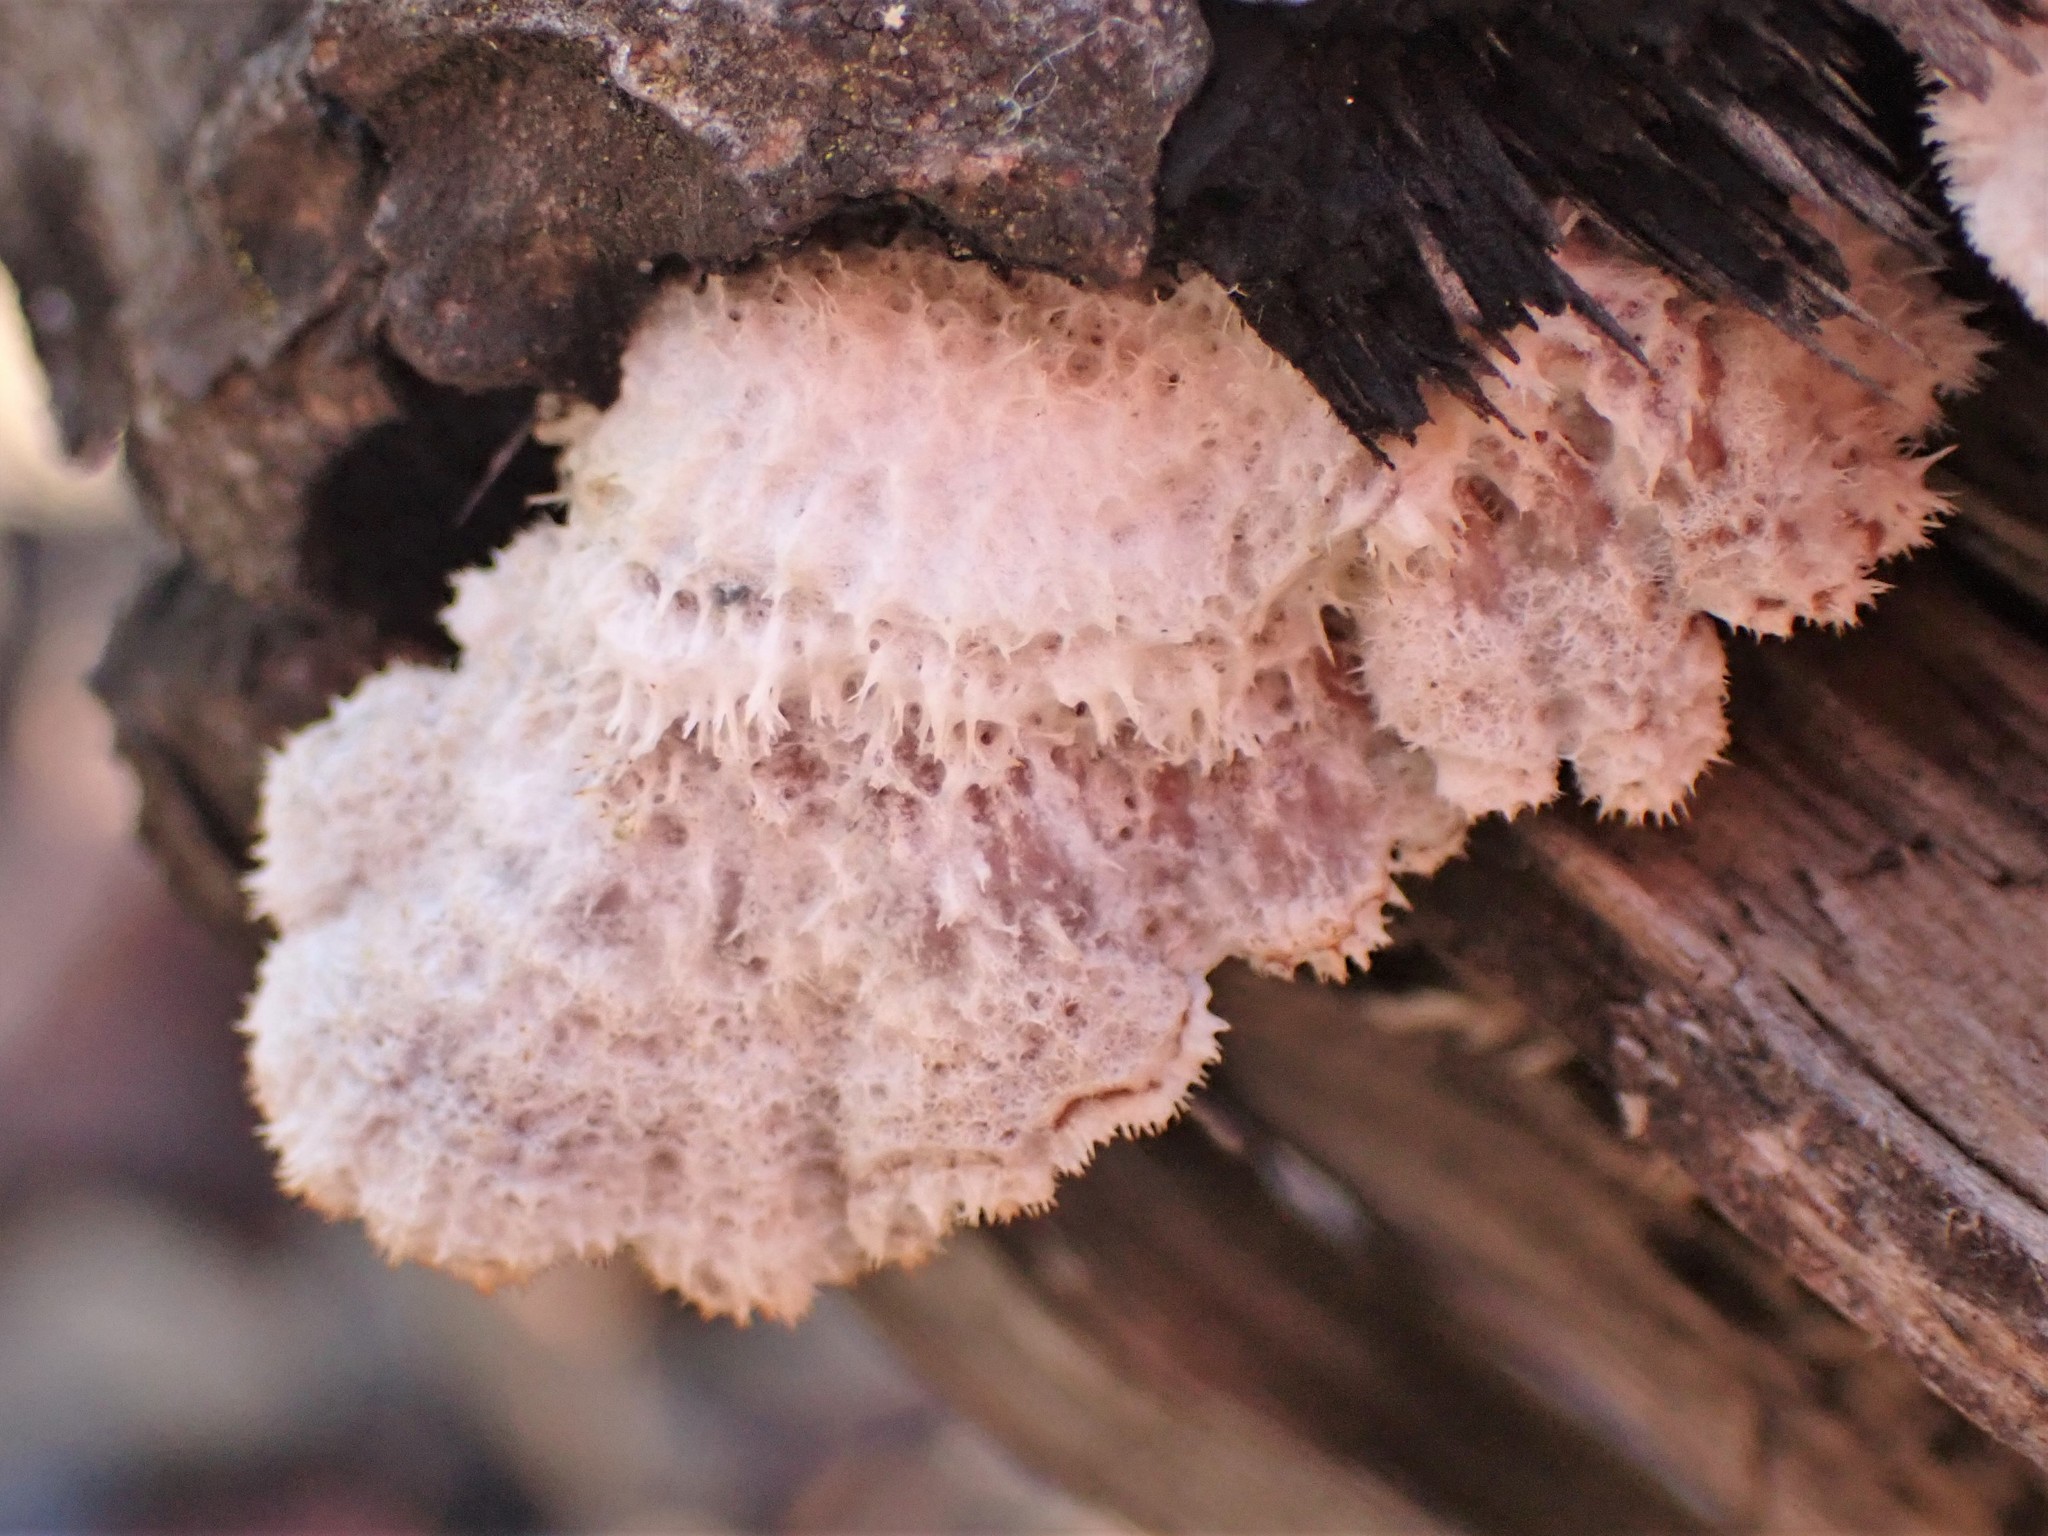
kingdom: Fungi
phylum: Basidiomycota
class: Agaricomycetes
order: Agaricales
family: Schizophyllaceae
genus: Schizophyllum
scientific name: Schizophyllum commune
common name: Common porecrust
